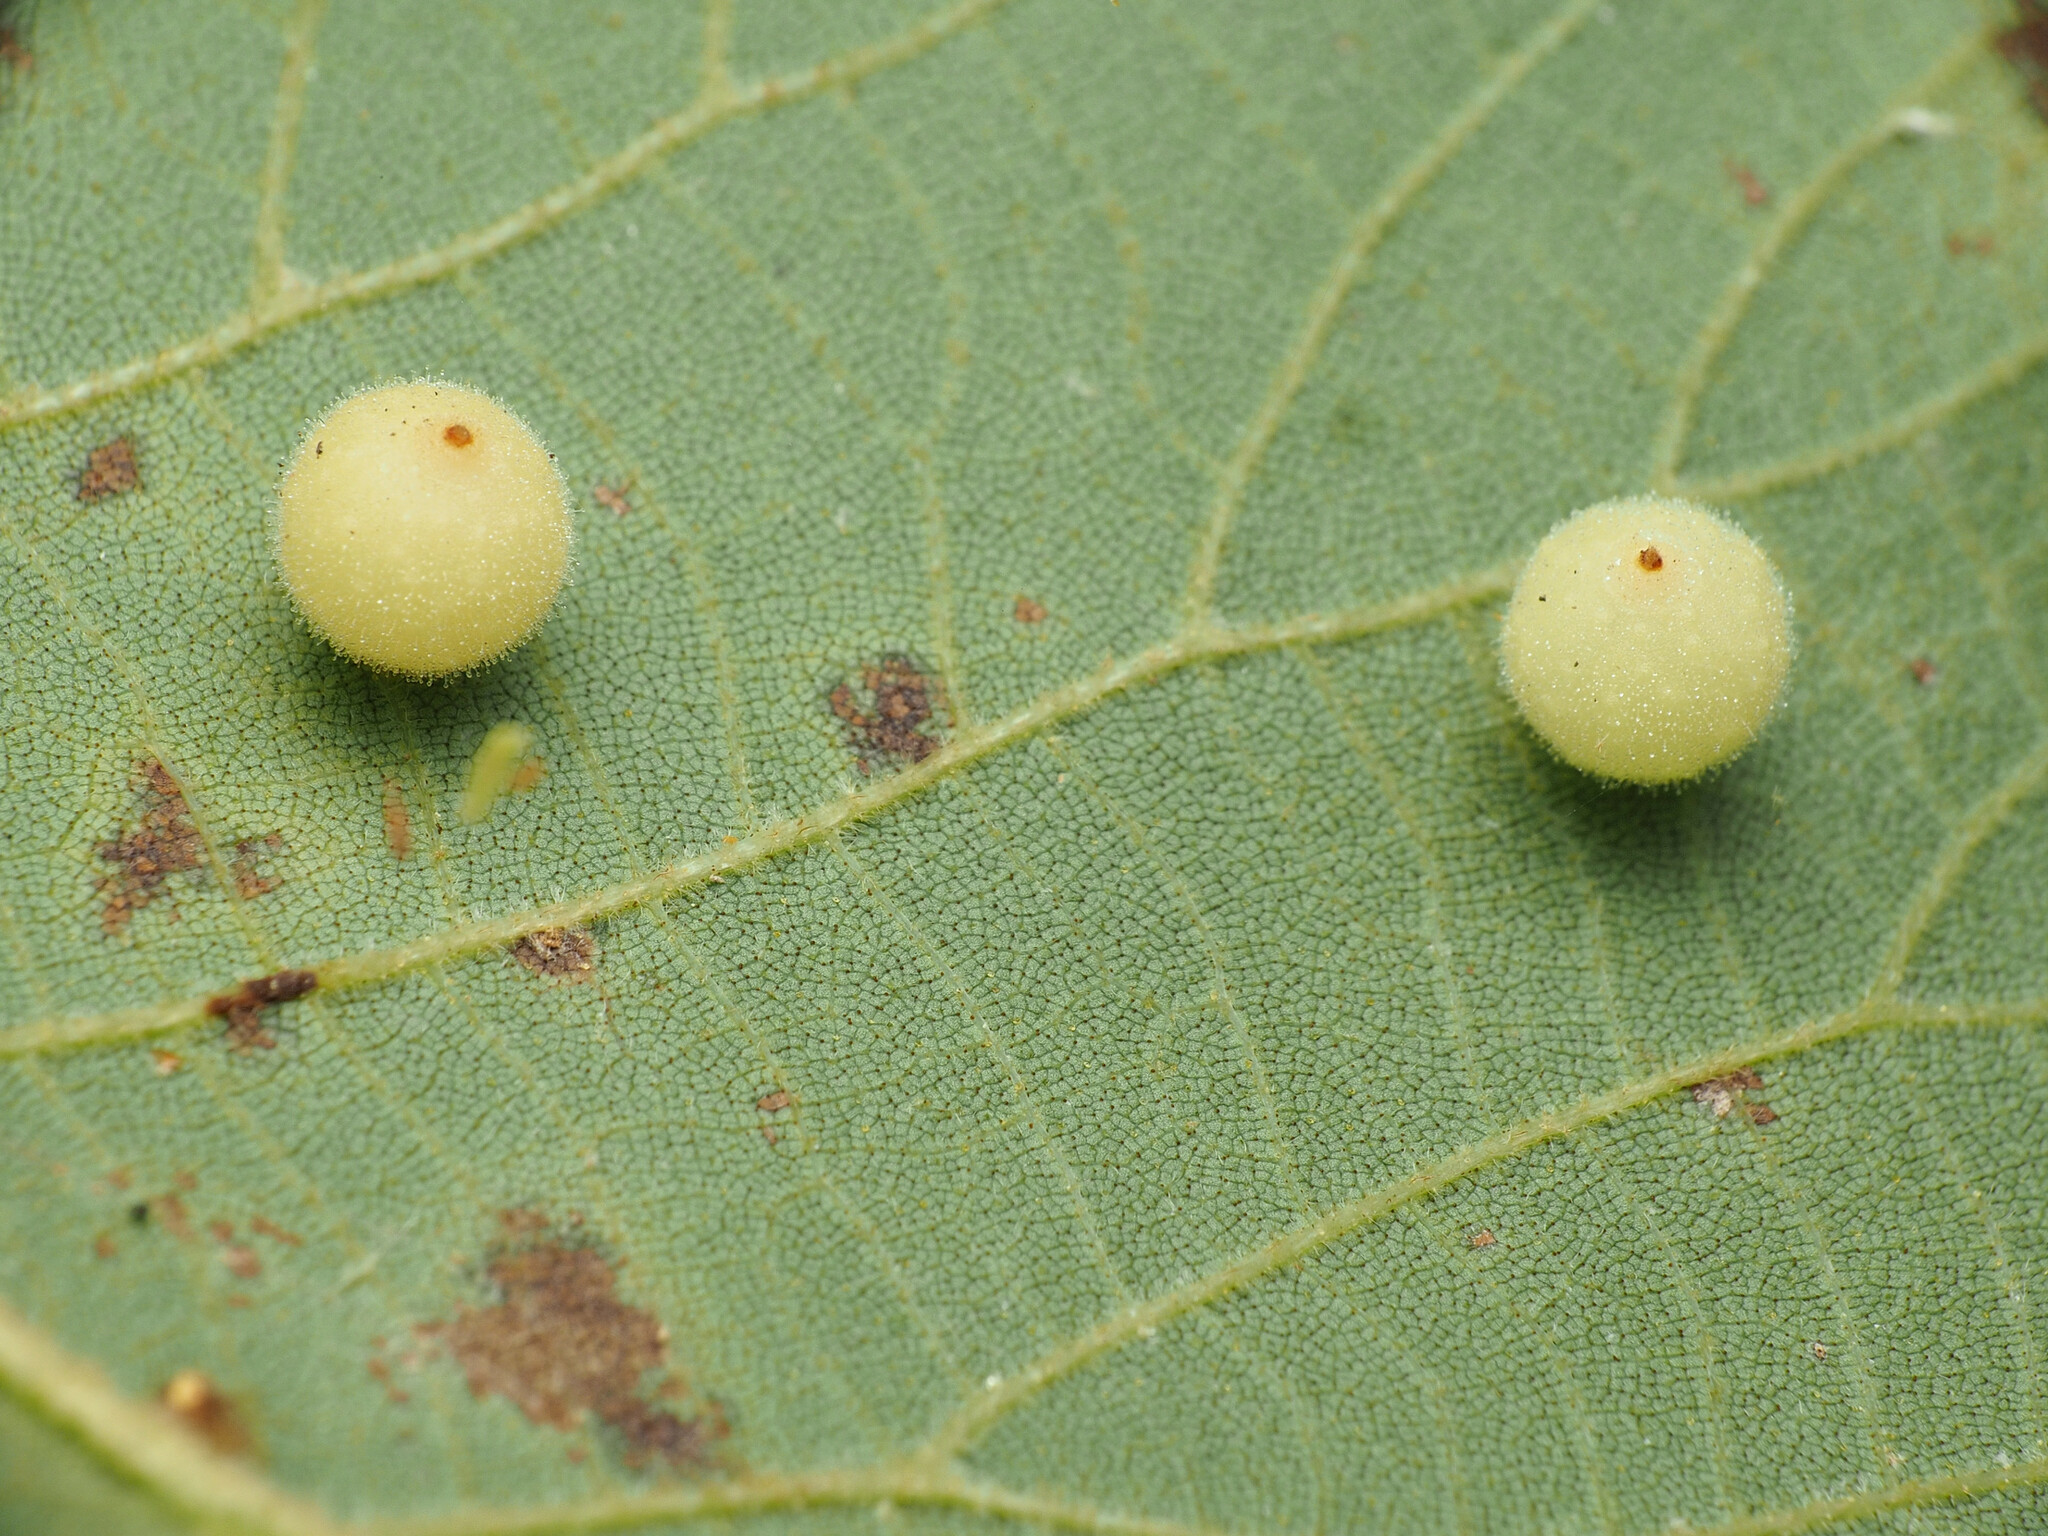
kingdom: Animalia
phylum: Arthropoda
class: Insecta
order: Diptera
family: Cecidomyiidae
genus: Caryomyia
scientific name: Caryomyia tuberidolium
